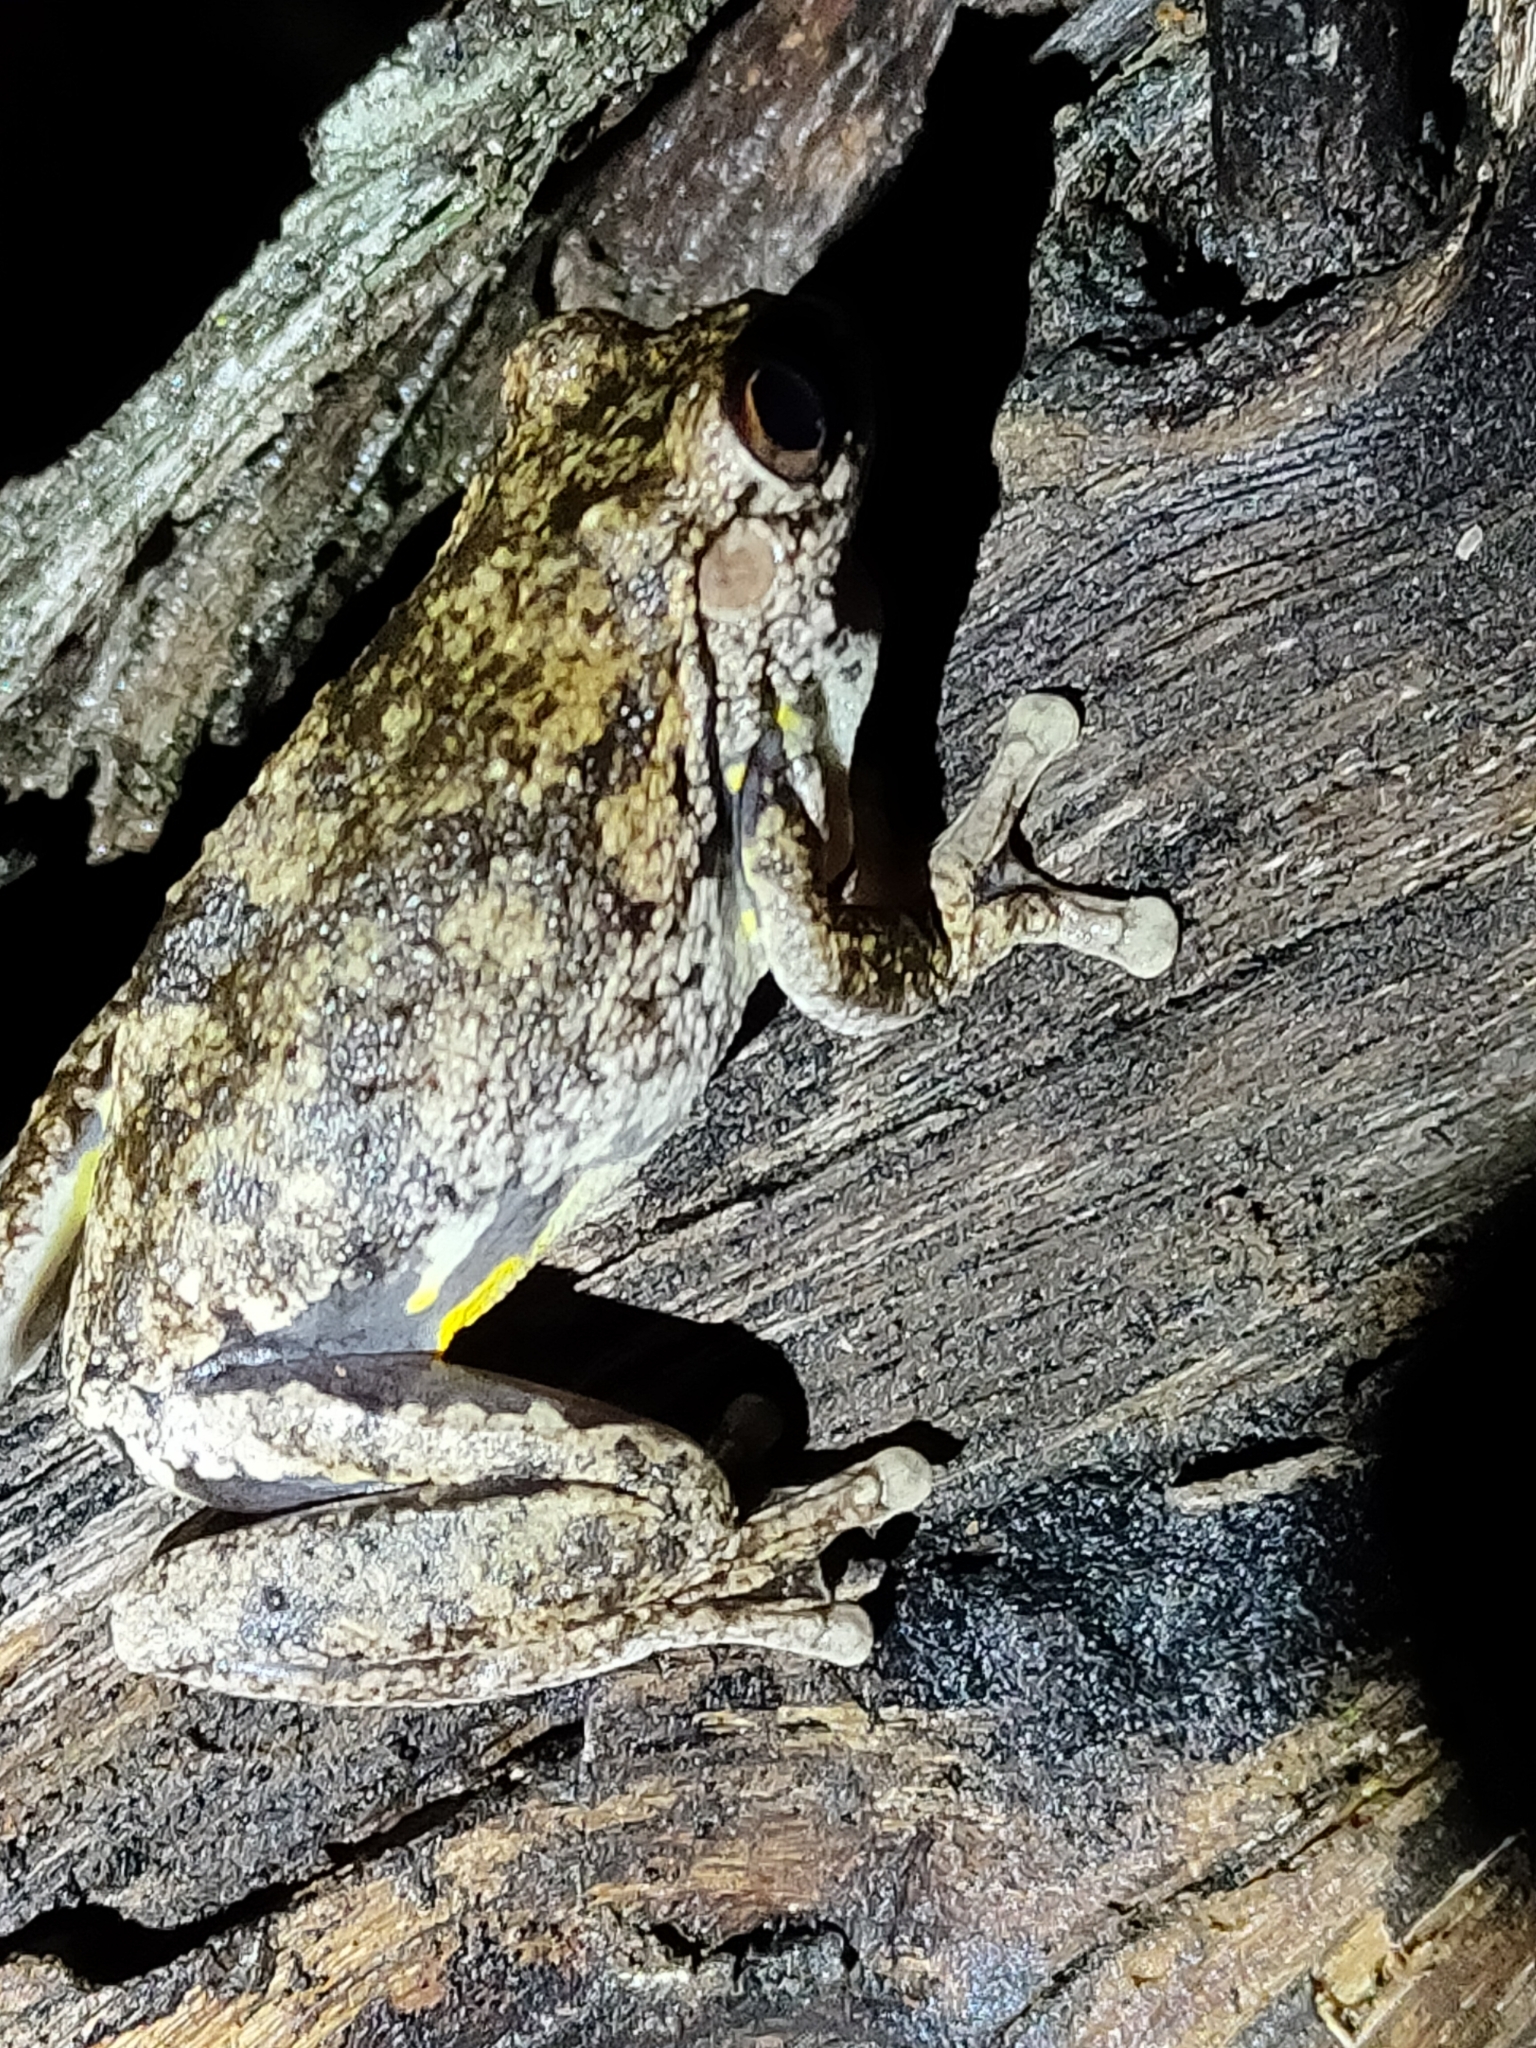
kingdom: Animalia
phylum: Chordata
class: Amphibia
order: Anura
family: Pelodryadidae
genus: Litoria
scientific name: Litoria rothii
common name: Roth’s tree frog
